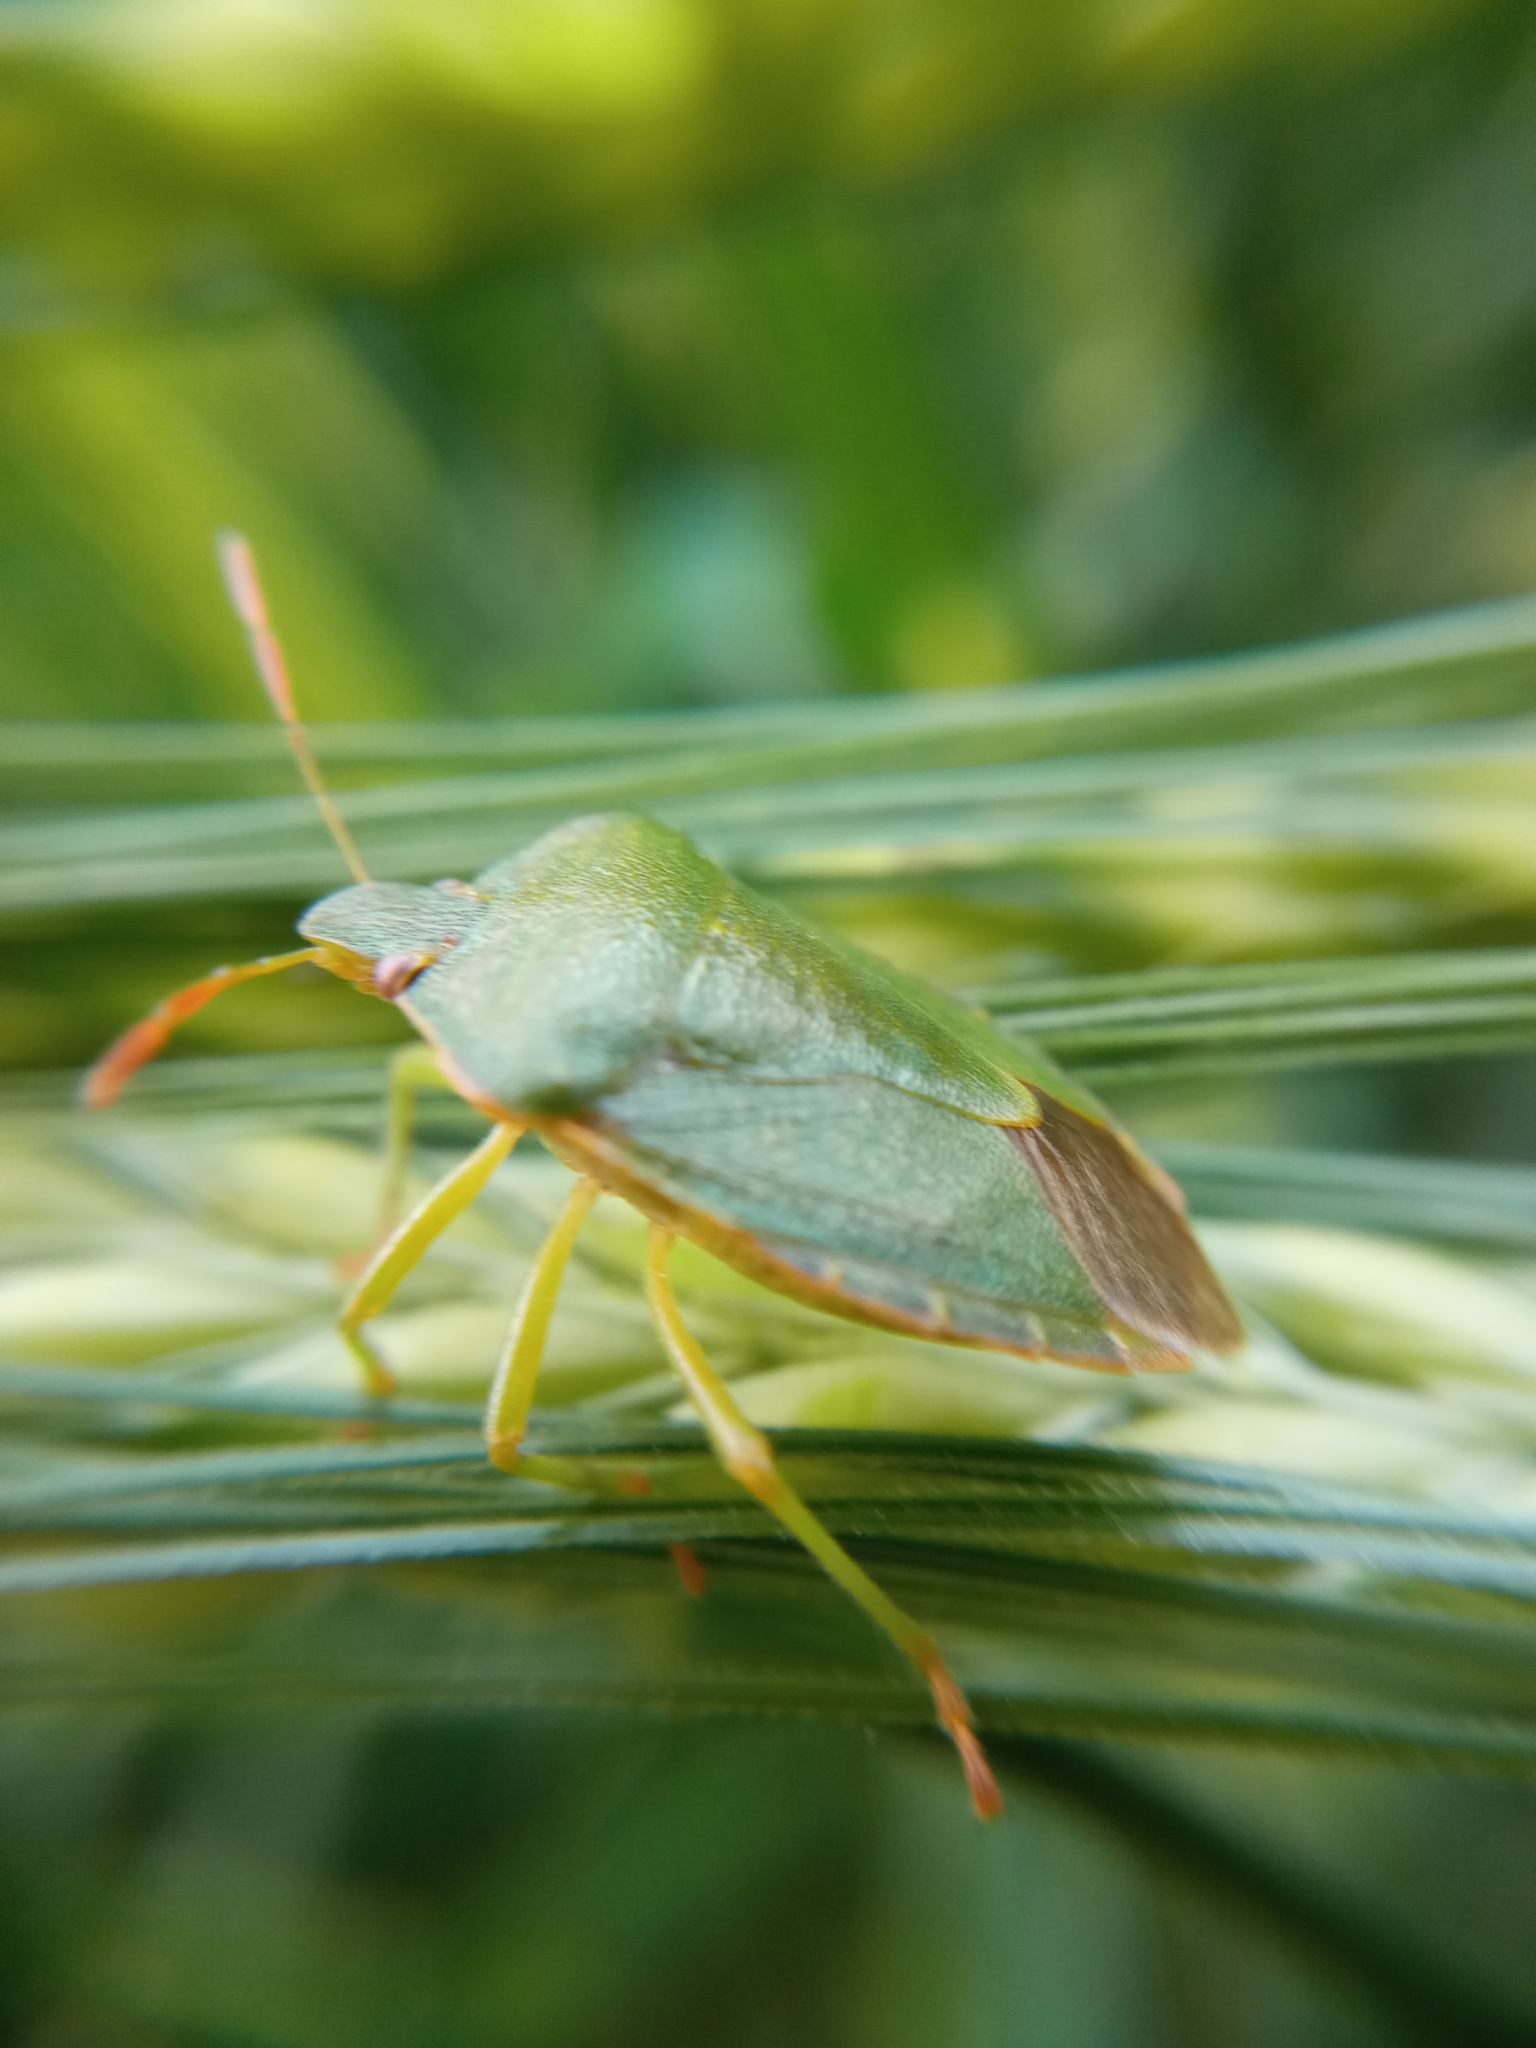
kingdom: Animalia
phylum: Arthropoda
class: Insecta
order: Hemiptera
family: Pentatomidae
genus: Palomena
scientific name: Palomena prasina
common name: Green shieldbug
